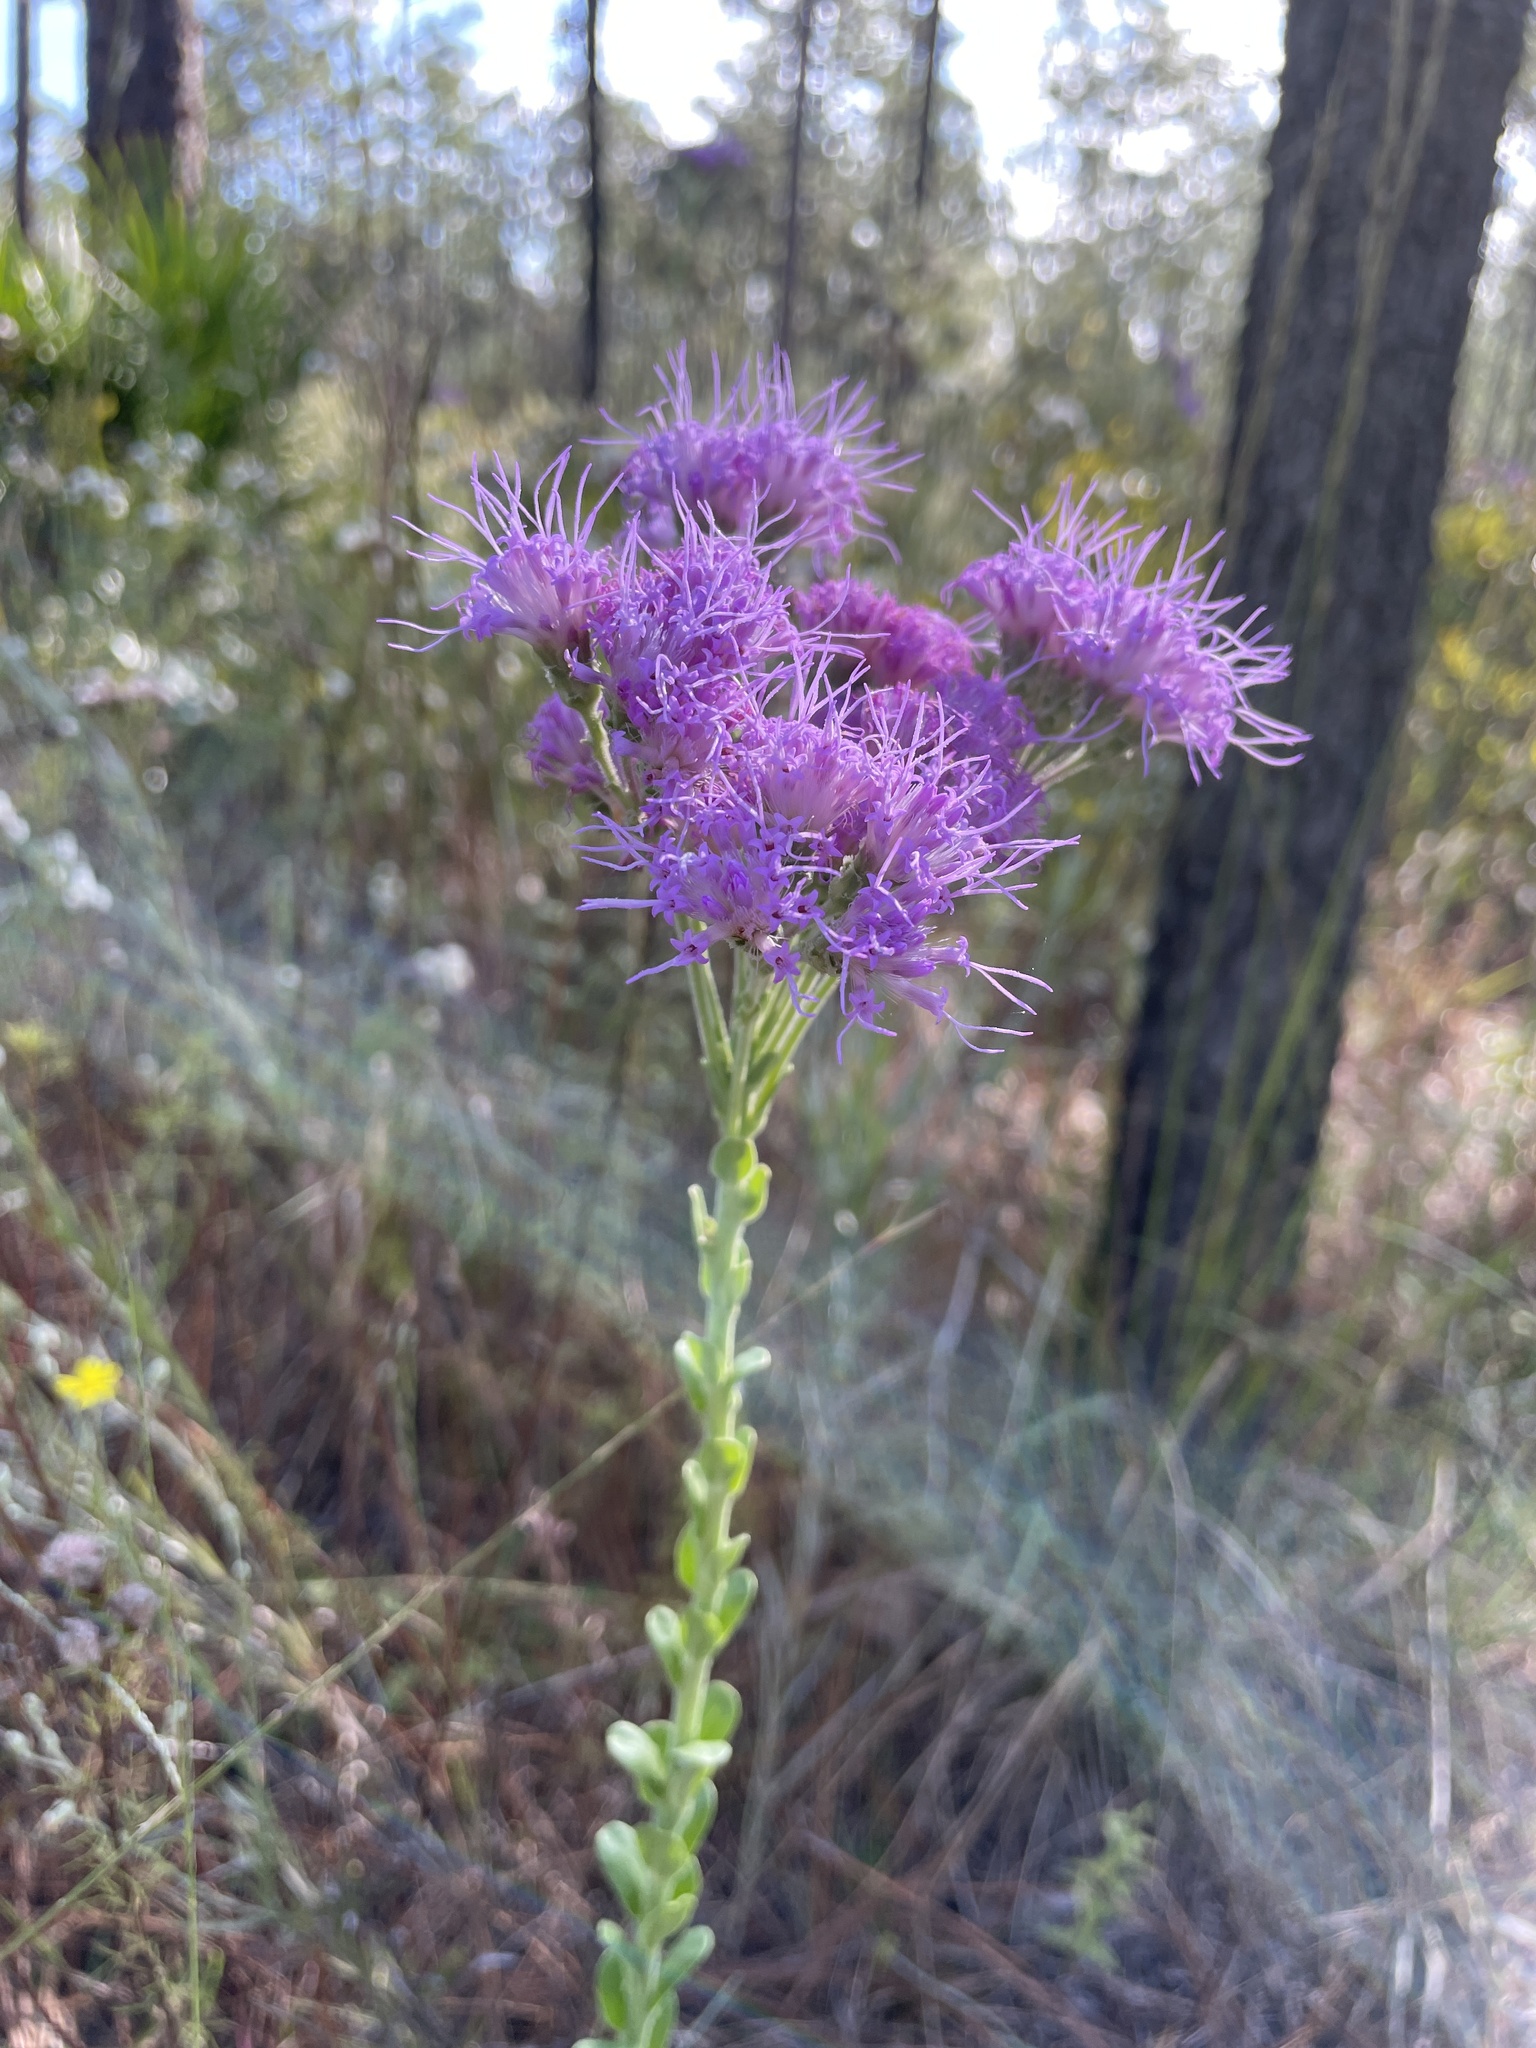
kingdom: Plantae
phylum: Tracheophyta
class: Magnoliopsida
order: Asterales
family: Asteraceae
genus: Carphephorus
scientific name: Carphephorus corymbosus
